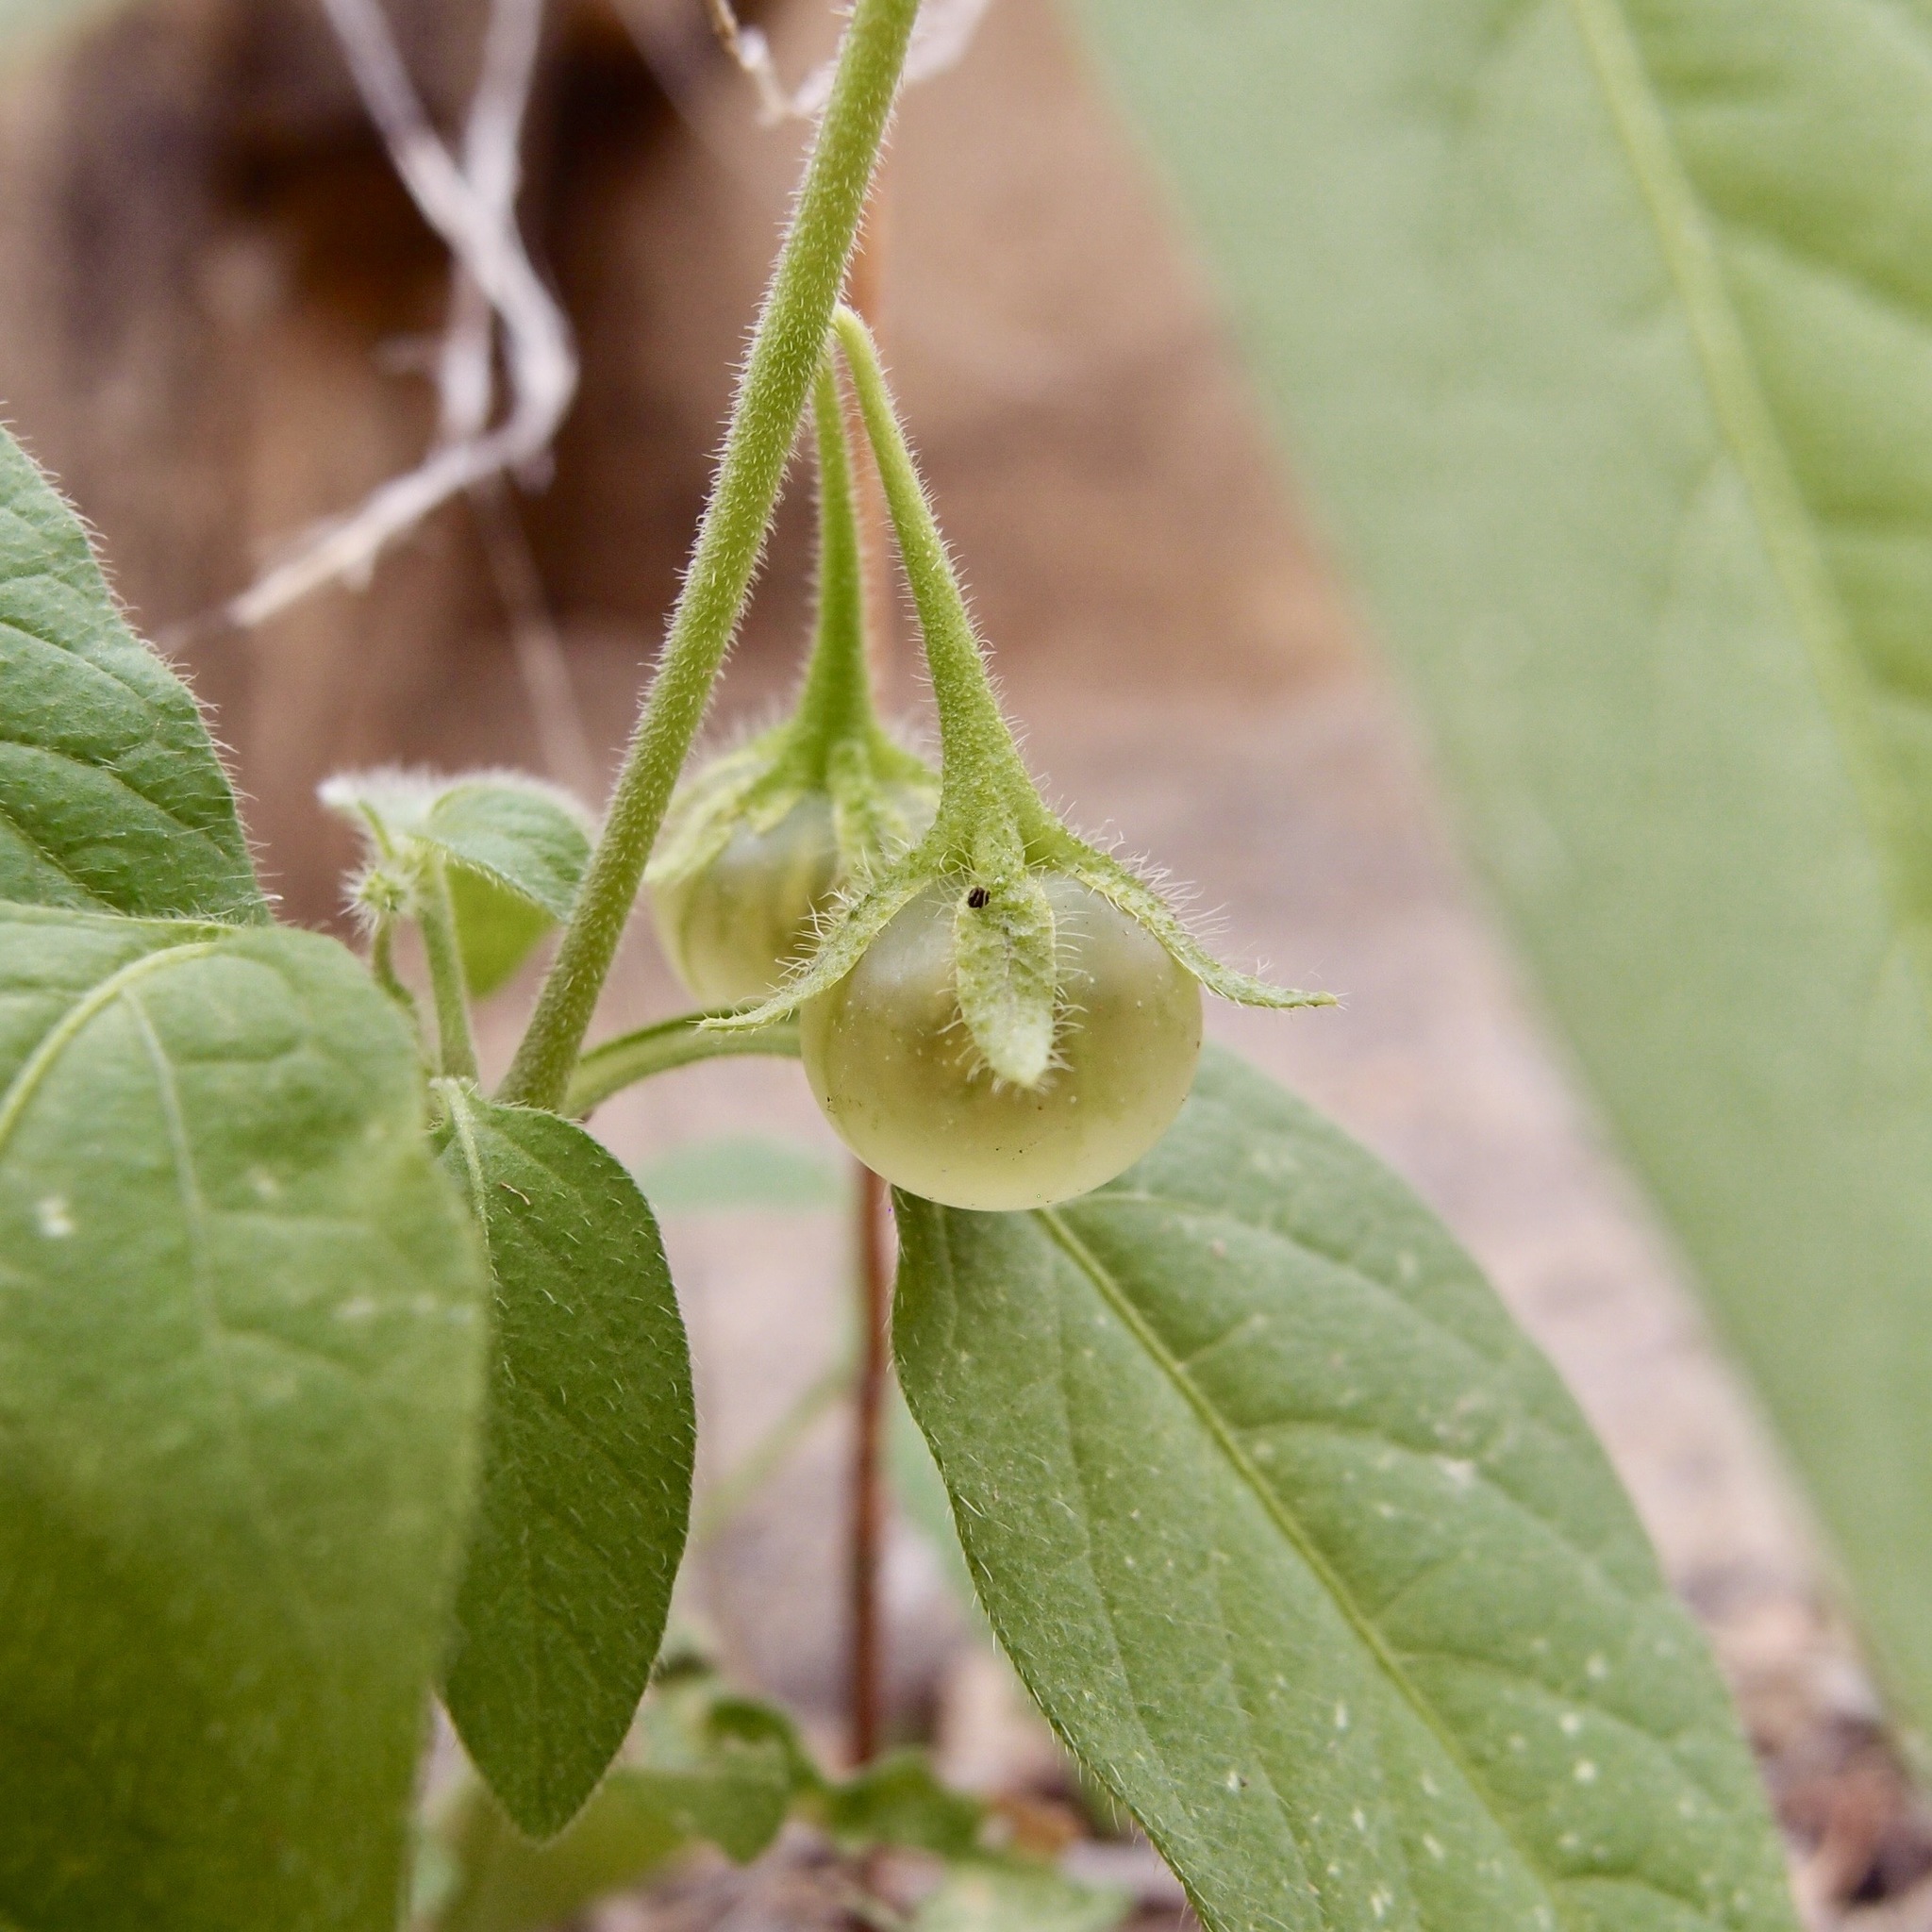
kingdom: Plantae
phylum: Tracheophyta
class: Magnoliopsida
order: Solanales
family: Solanaceae
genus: Solanum
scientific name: Solanum deflexum
